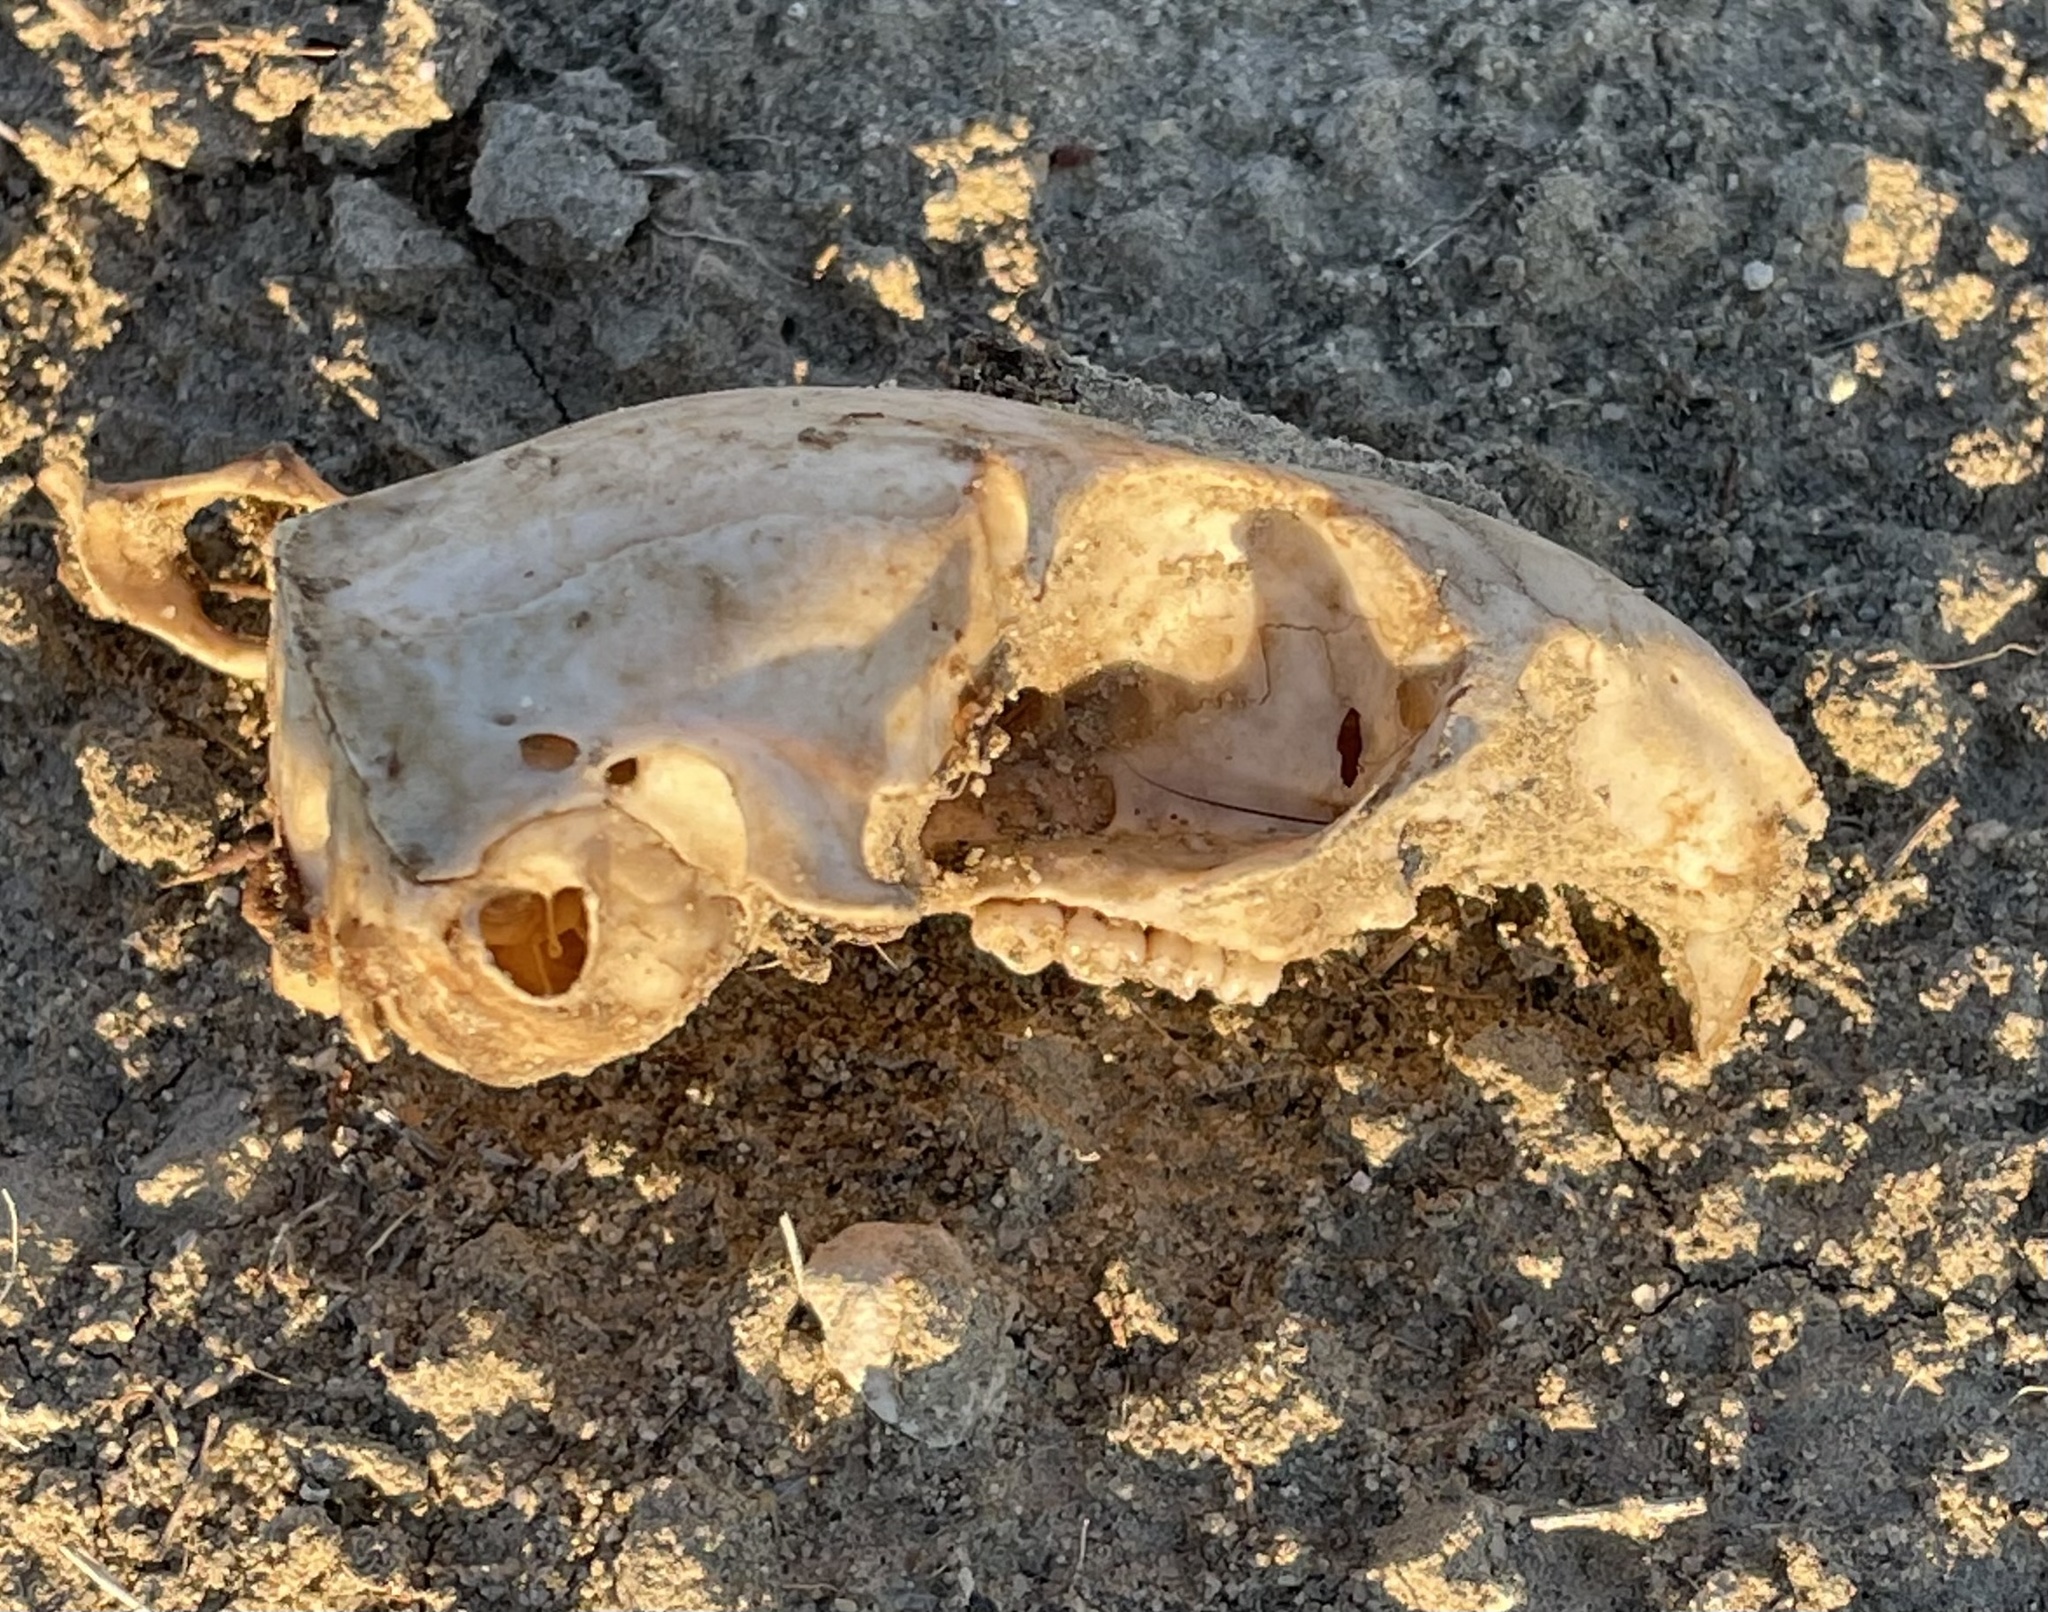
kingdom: Animalia
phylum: Chordata
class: Mammalia
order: Rodentia
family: Sciuridae
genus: Otospermophilus
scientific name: Otospermophilus beecheyi
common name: California ground squirrel
